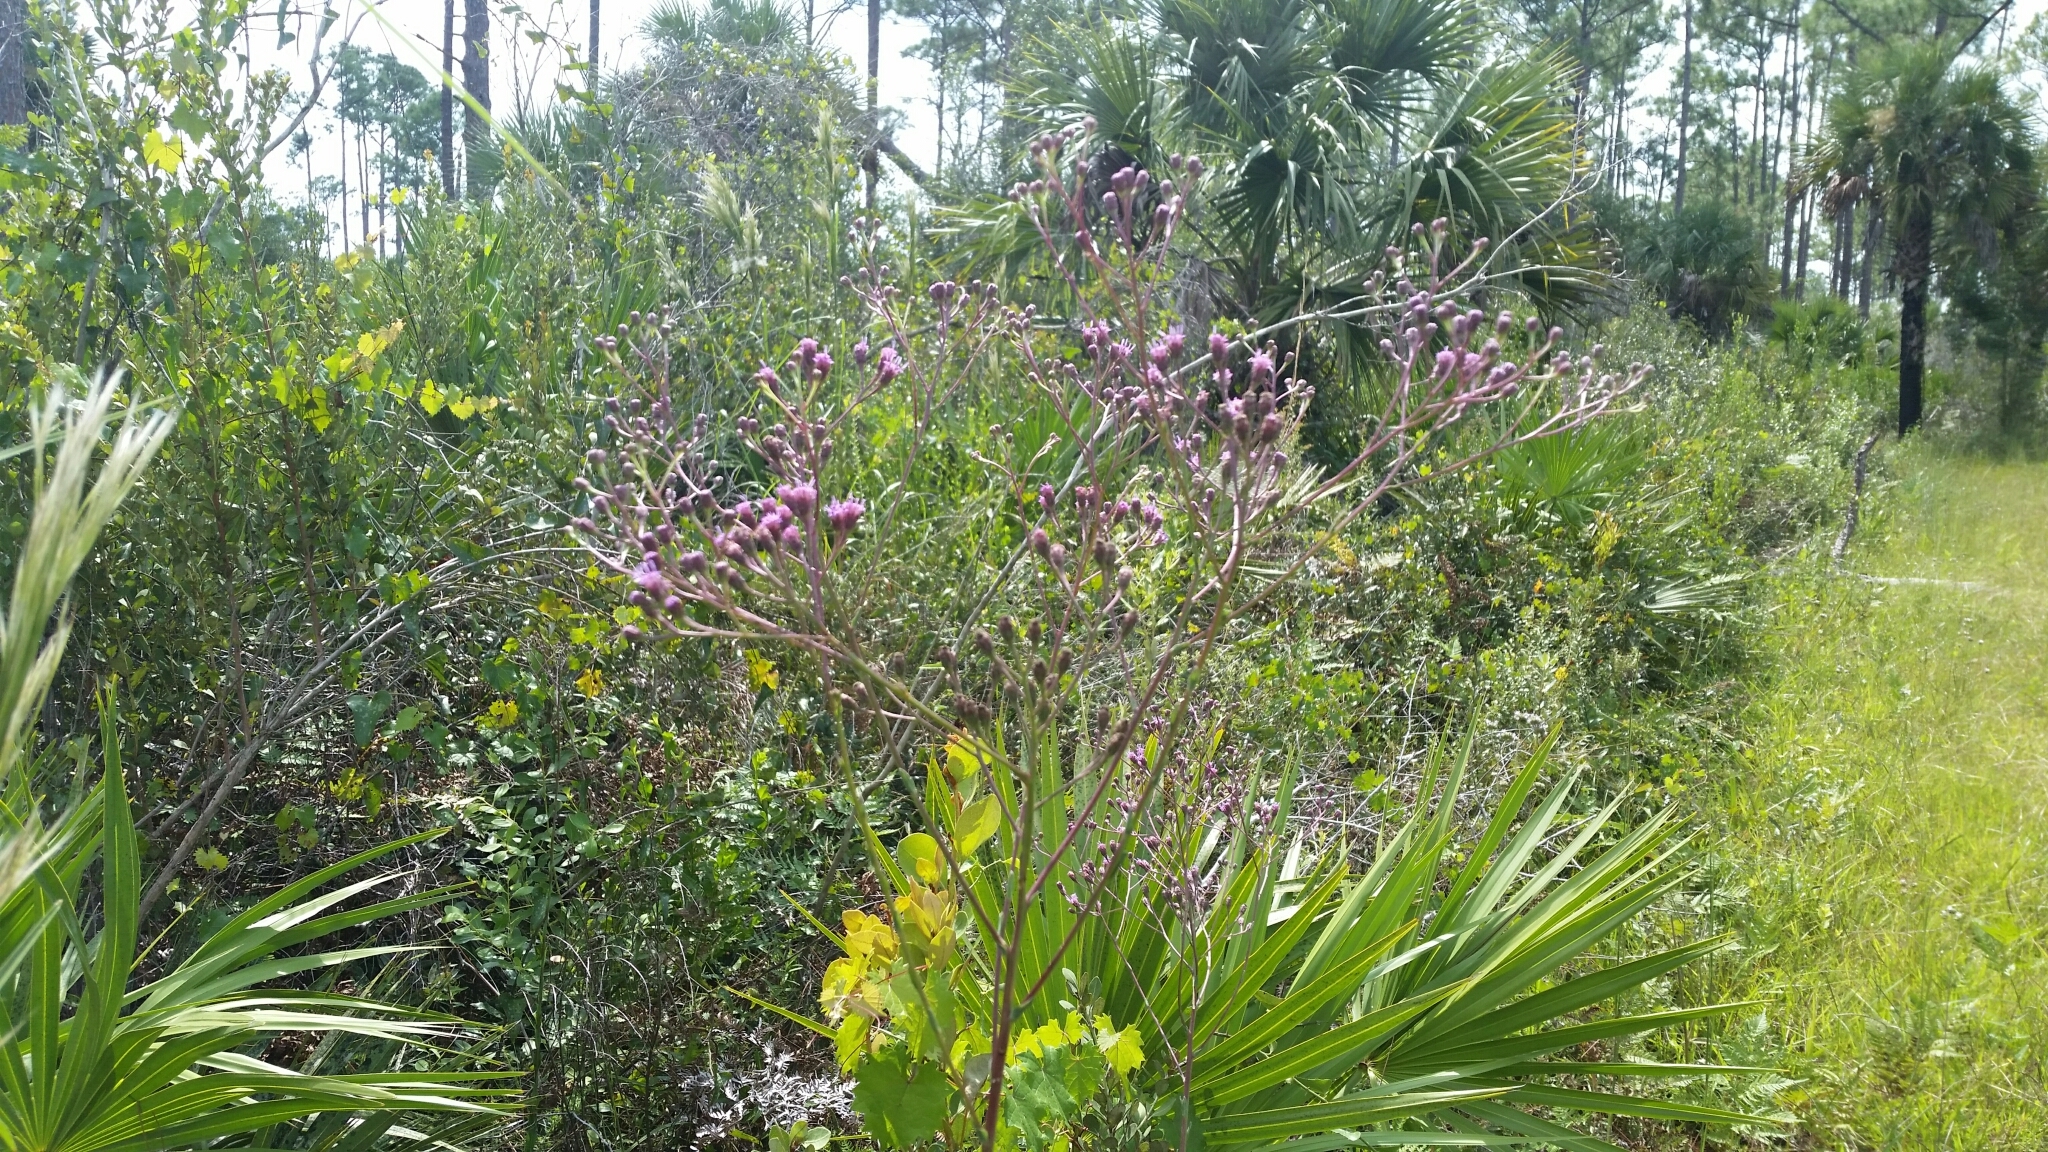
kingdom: Plantae
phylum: Tracheophyta
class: Magnoliopsida
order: Asterales
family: Asteraceae
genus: Carphephorus
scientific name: Carphephorus
